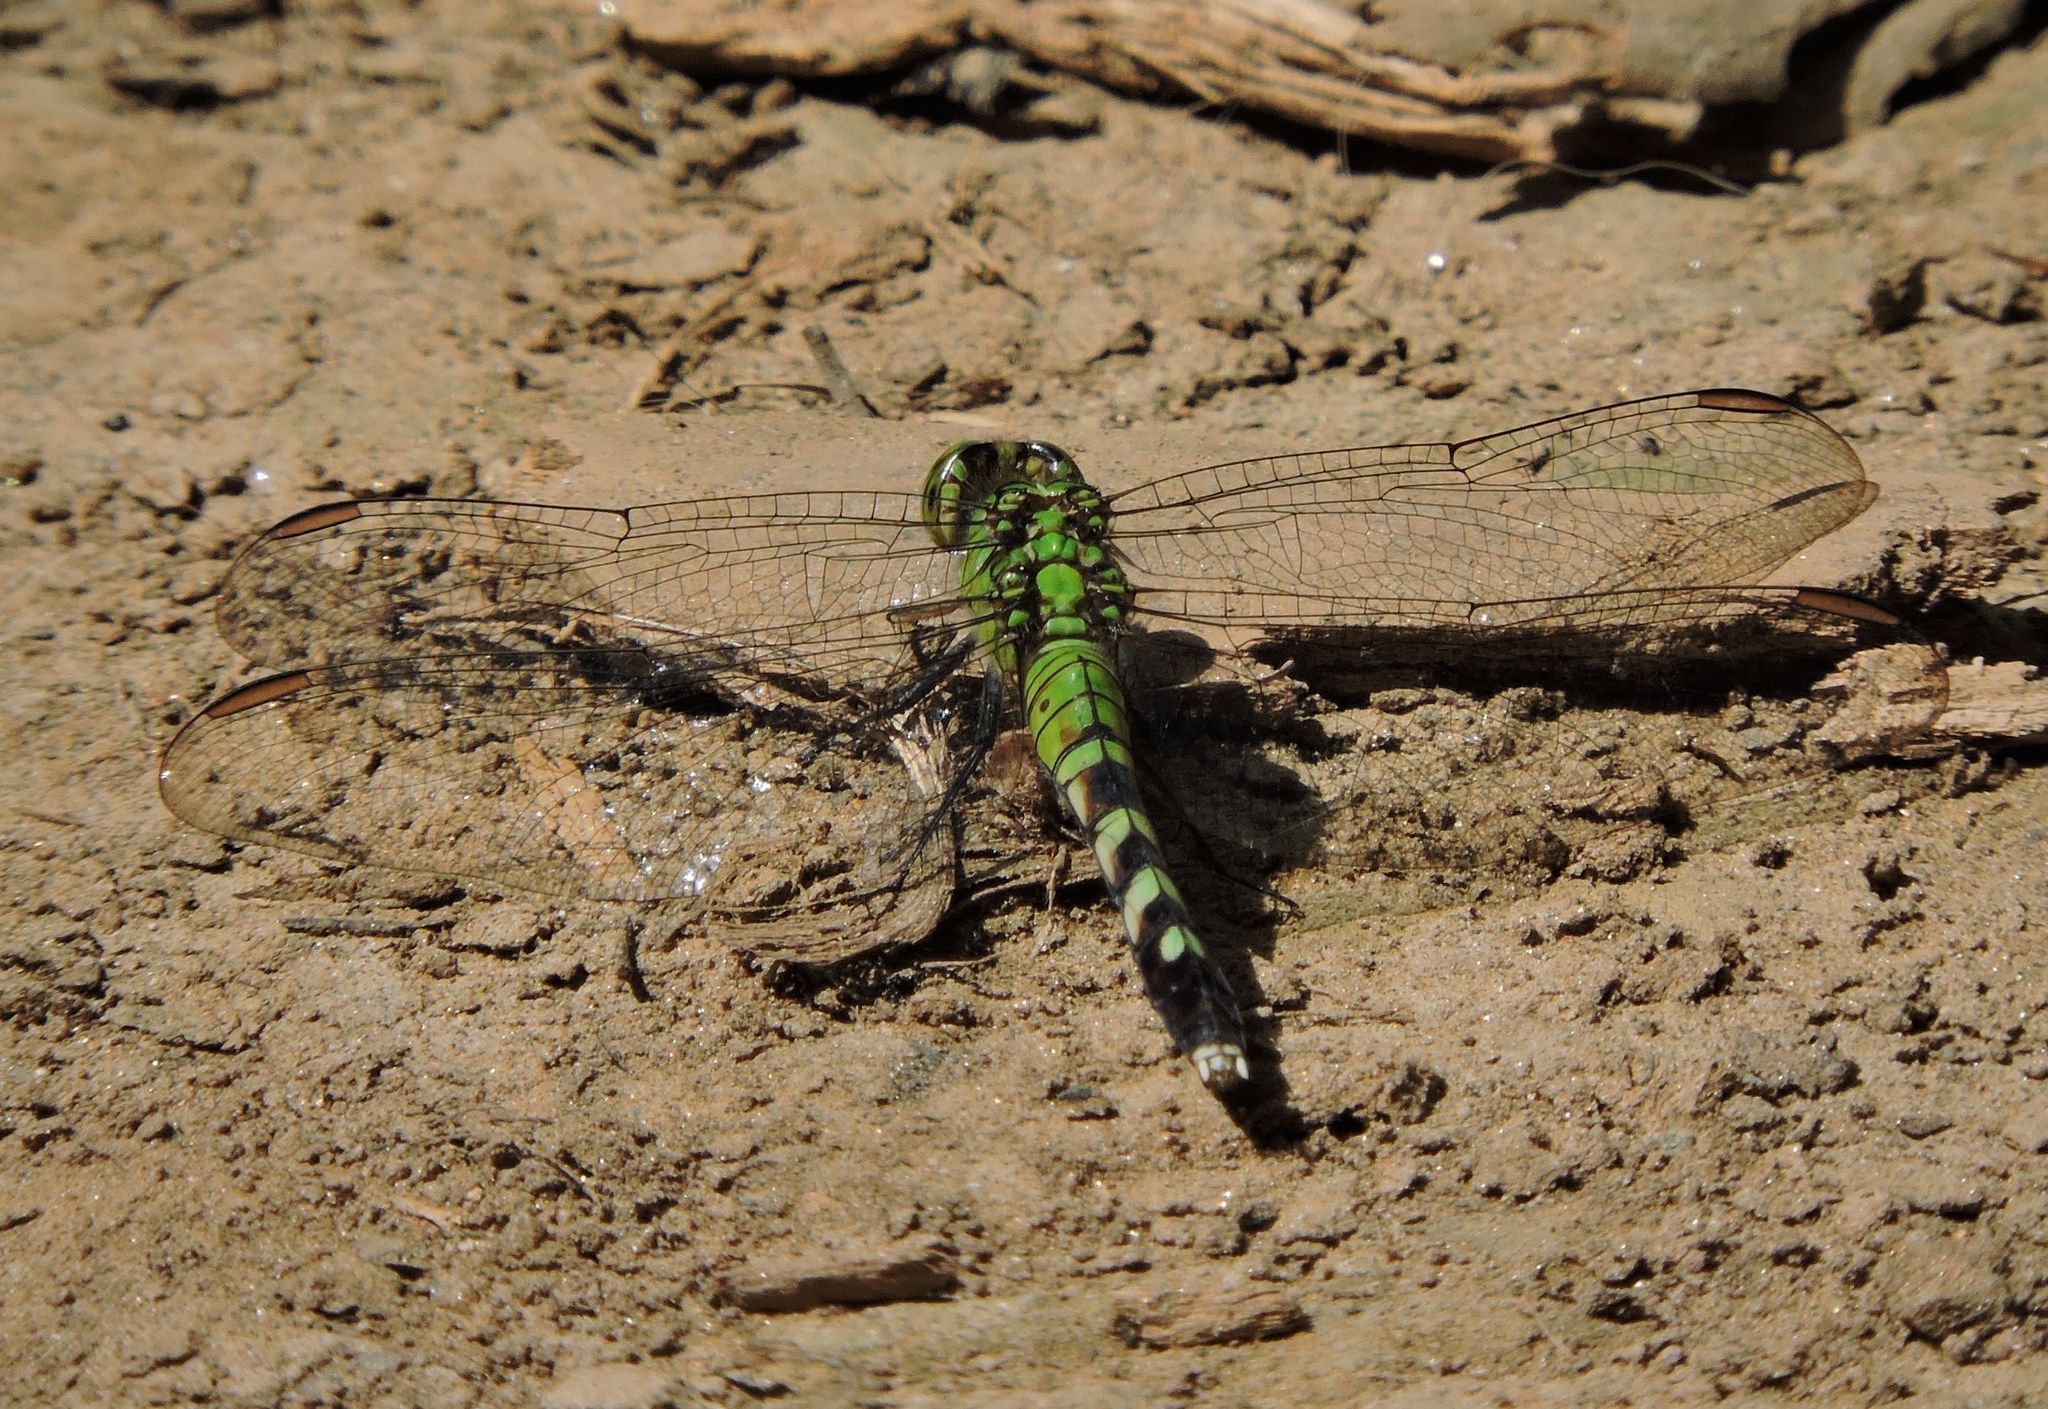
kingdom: Animalia
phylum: Arthropoda
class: Insecta
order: Odonata
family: Libellulidae
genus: Erythemis
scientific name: Erythemis simplicicollis
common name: Eastern pondhawk
